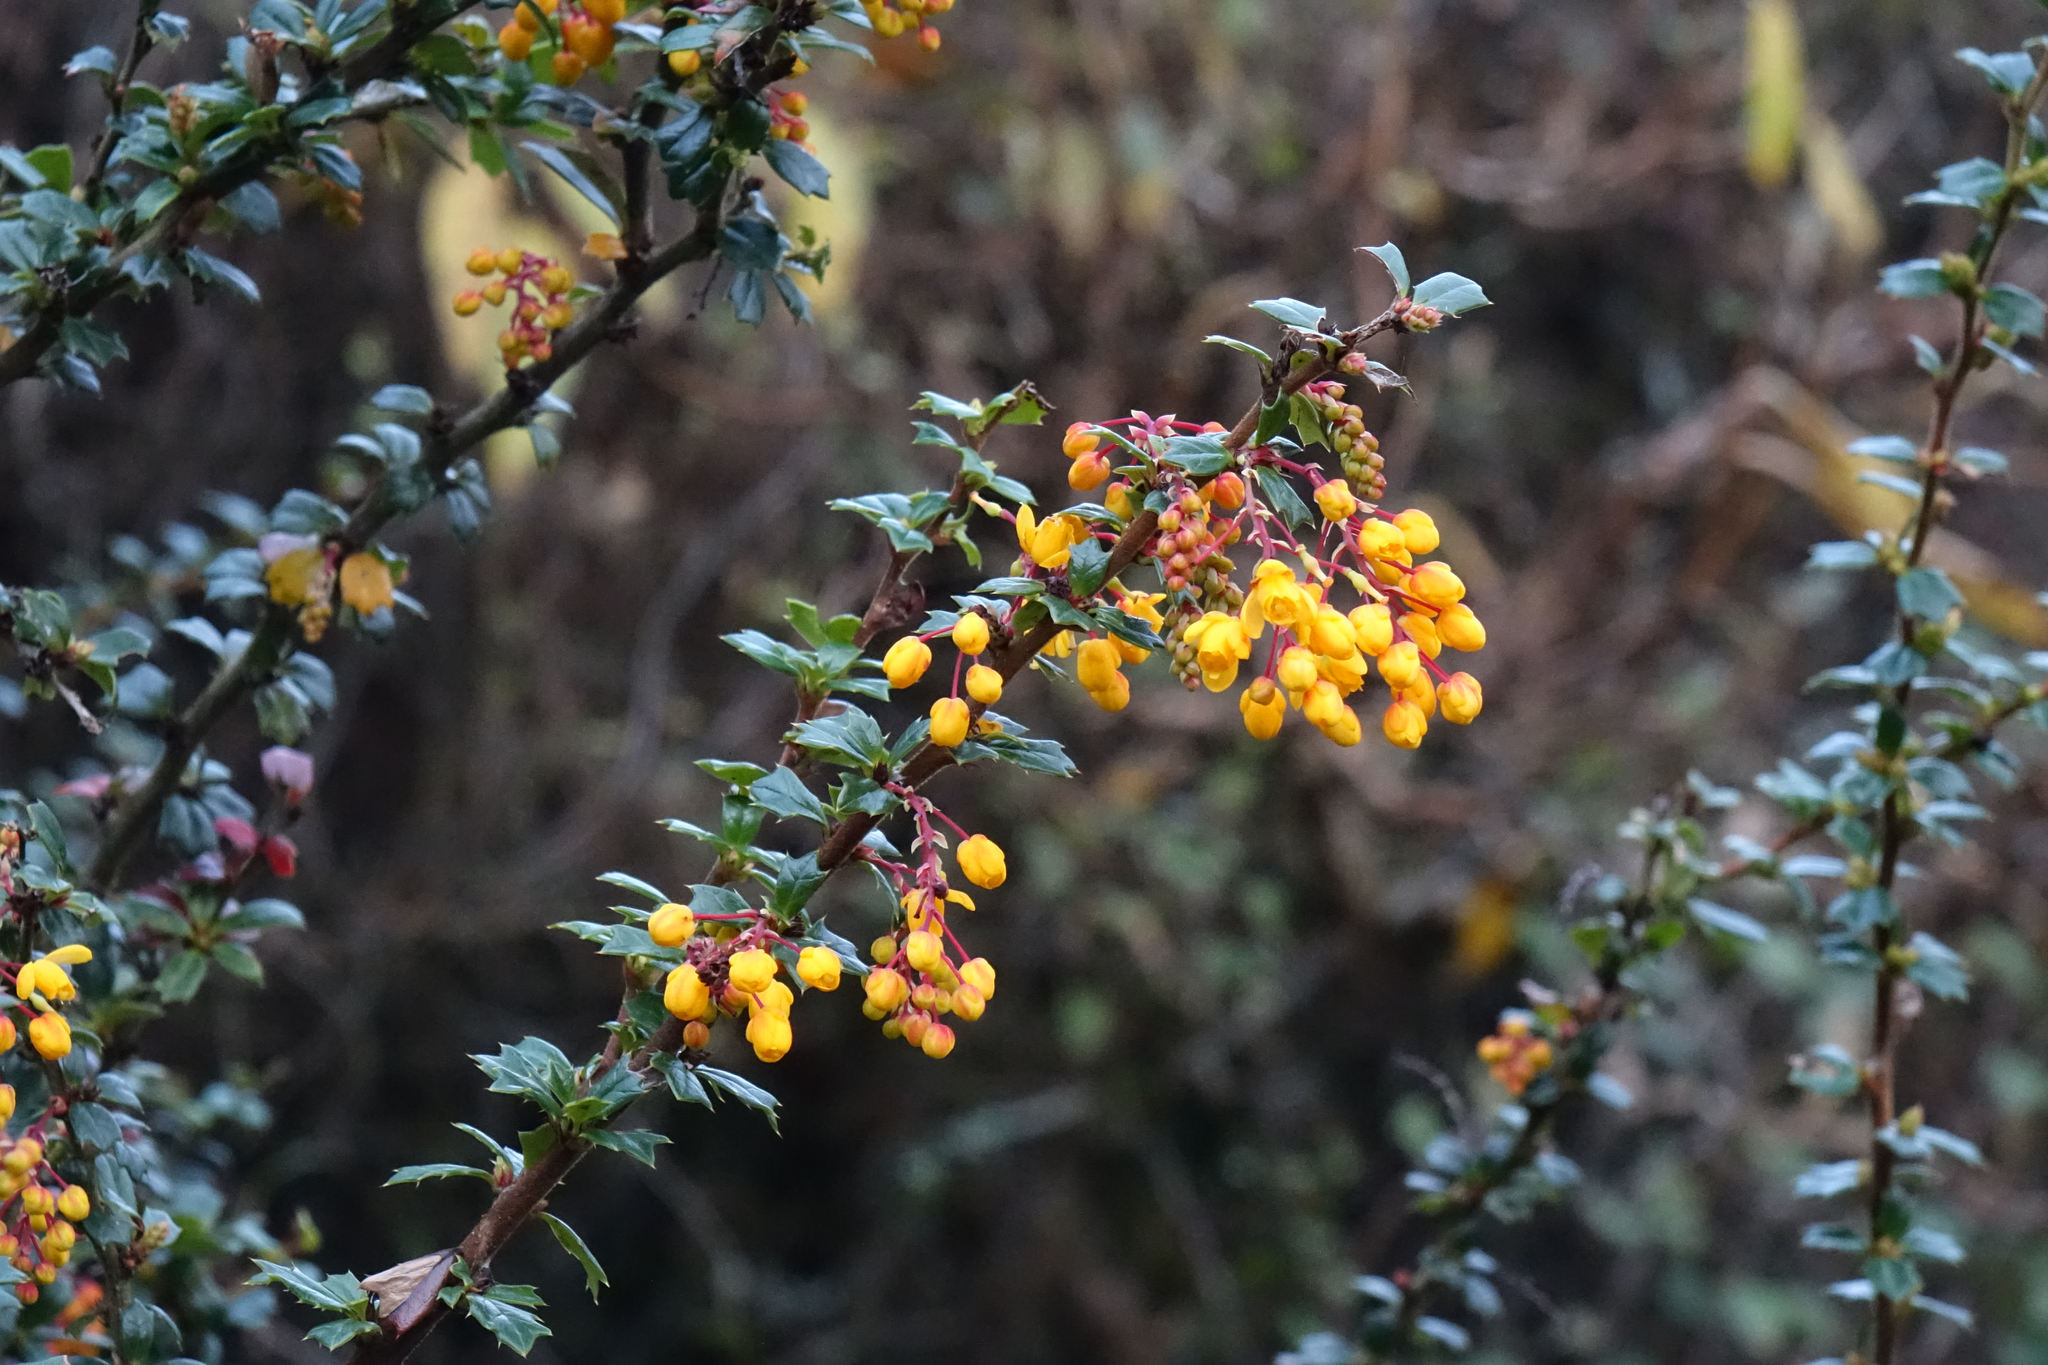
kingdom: Plantae
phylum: Tracheophyta
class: Magnoliopsida
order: Ranunculales
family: Berberidaceae
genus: Berberis
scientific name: Berberis darwinii
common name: Darwin's barberry
